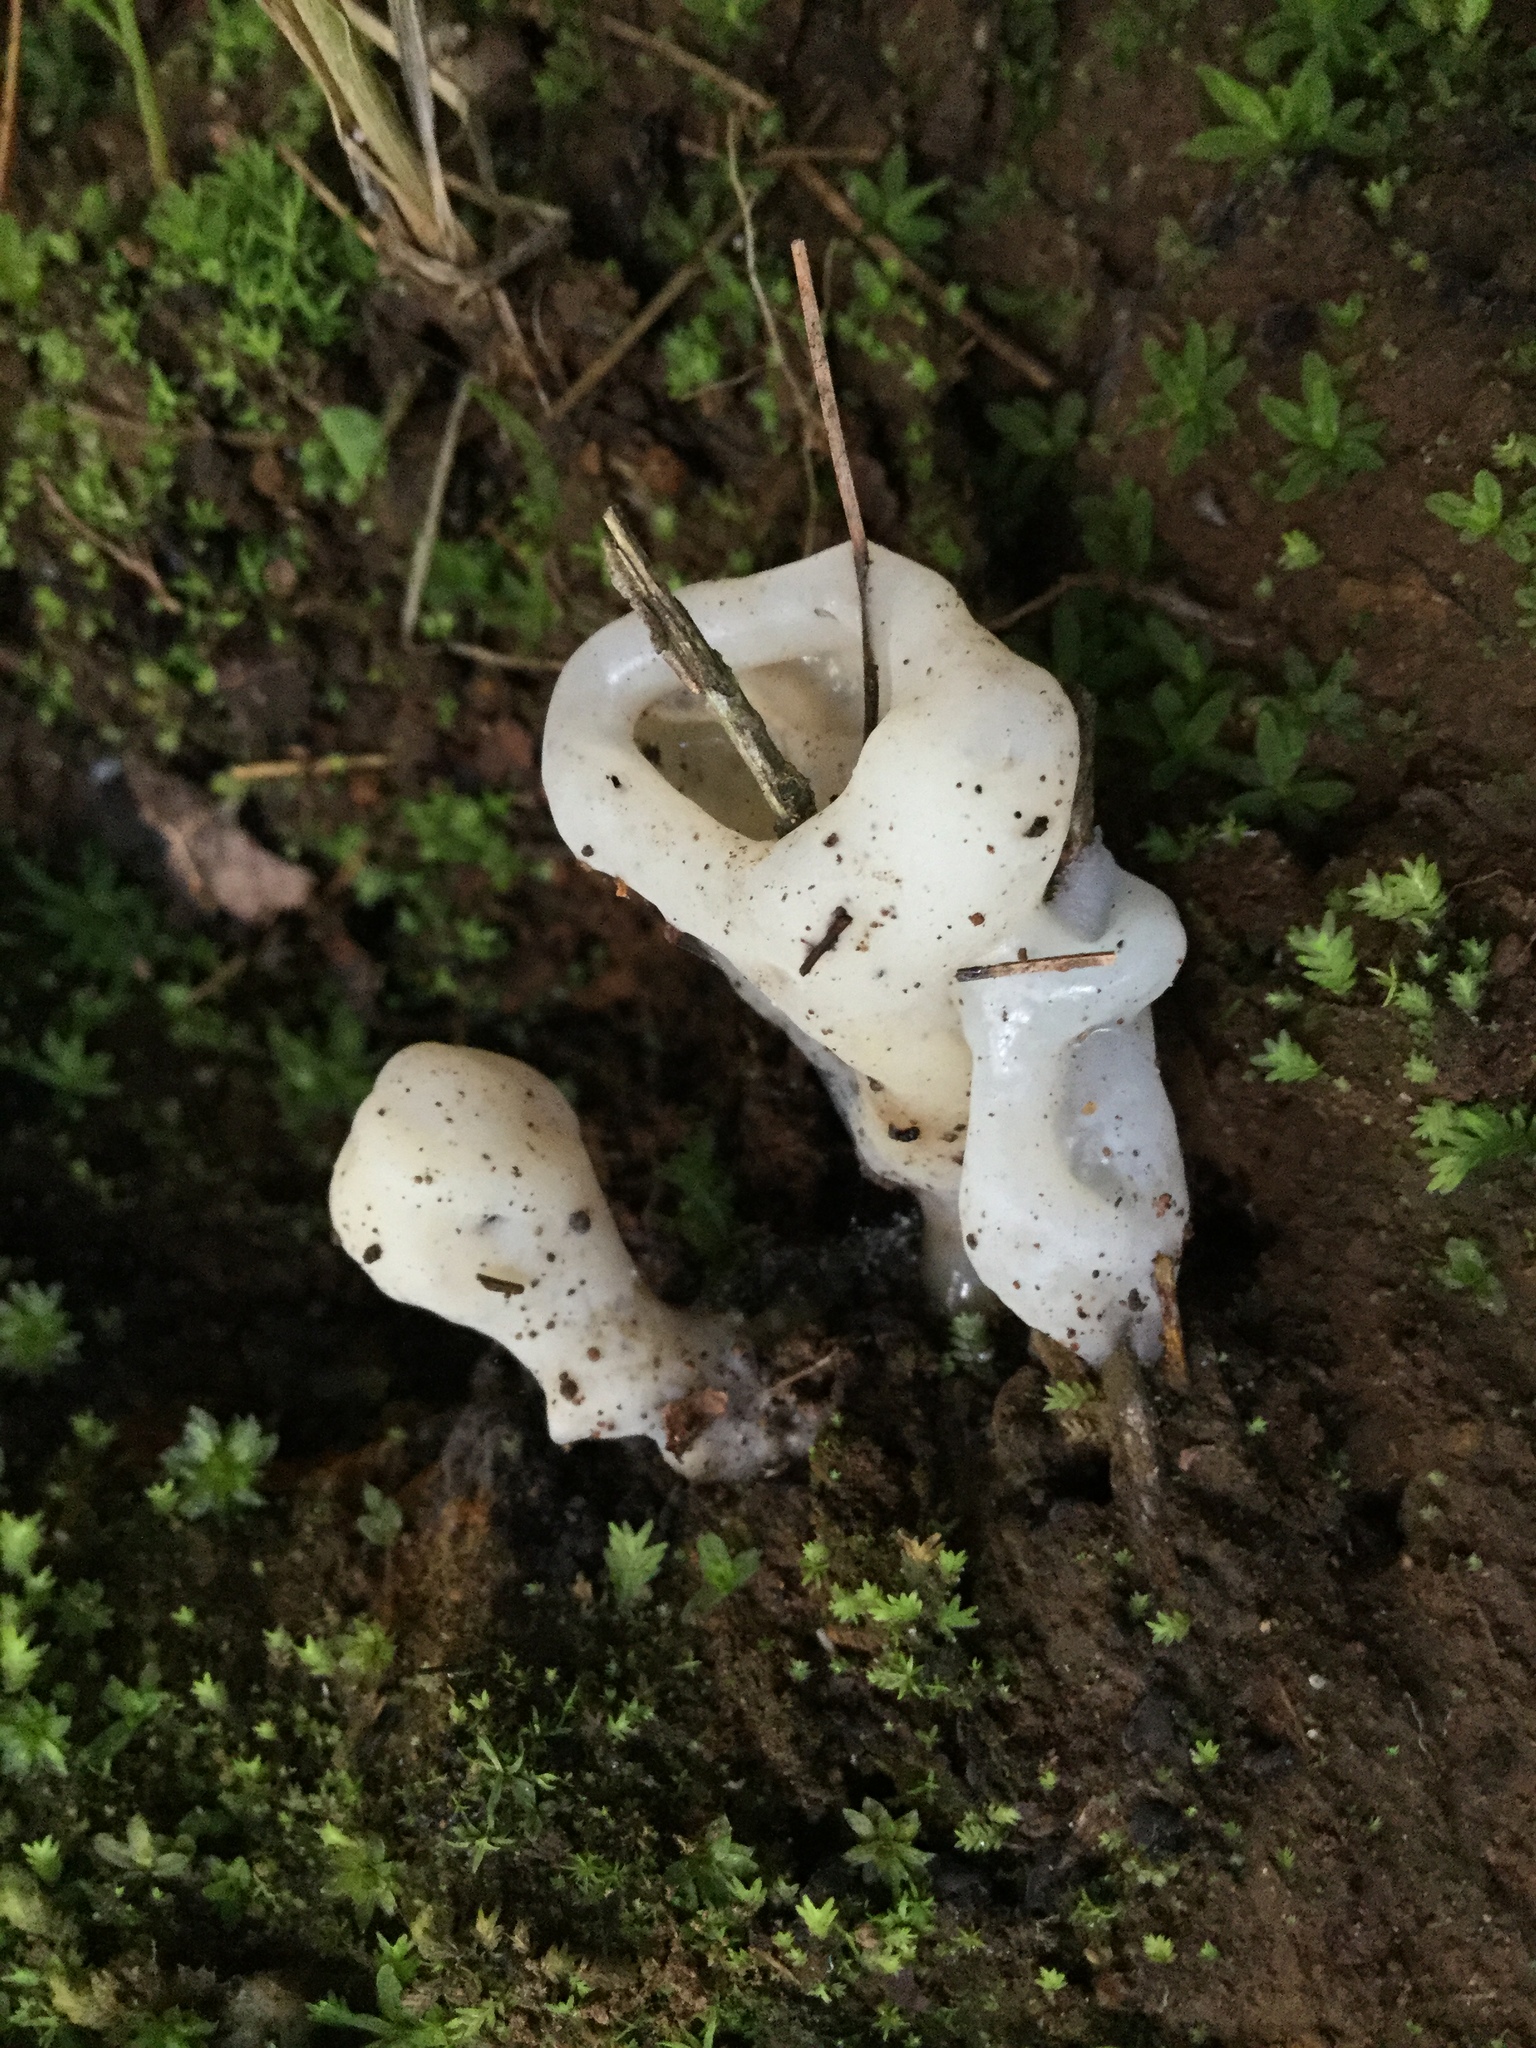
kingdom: Fungi
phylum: Basidiomycota
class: Agaricomycetes
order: Auriculariales
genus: Ductifera
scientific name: Ductifera pululahuana
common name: White jelly fungus
